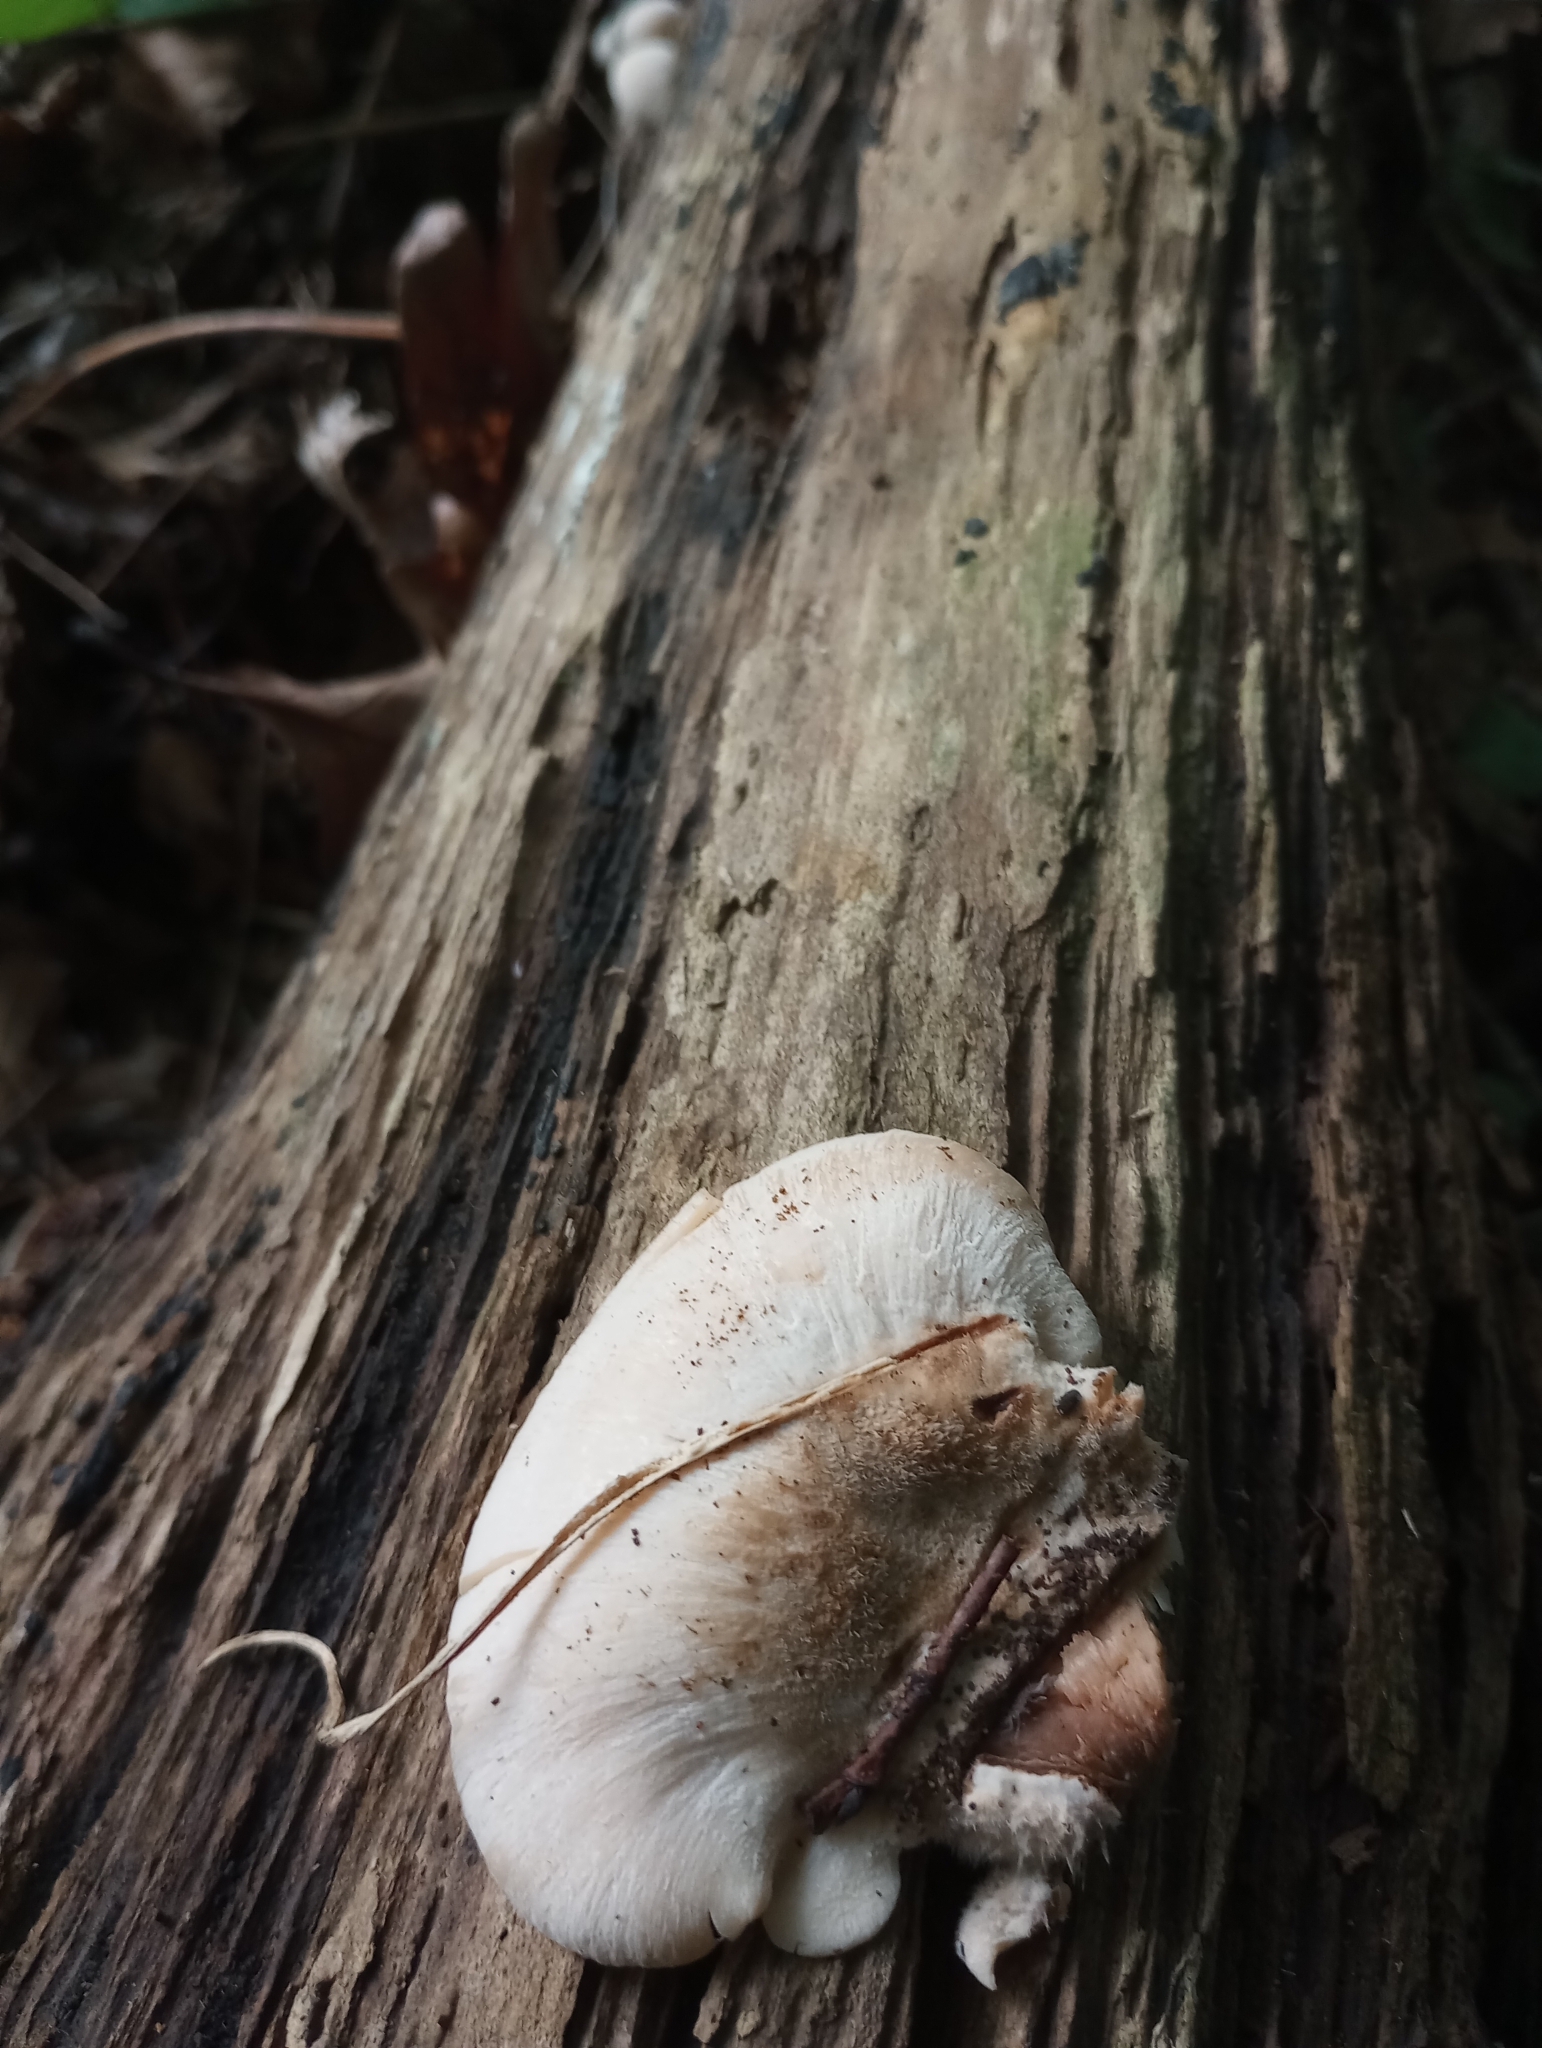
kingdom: Fungi
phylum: Basidiomycota
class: Agaricomycetes
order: Russulales
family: Auriscalpiaceae
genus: Lentinellus
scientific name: Lentinellus ursinus
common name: Bear lentinus
